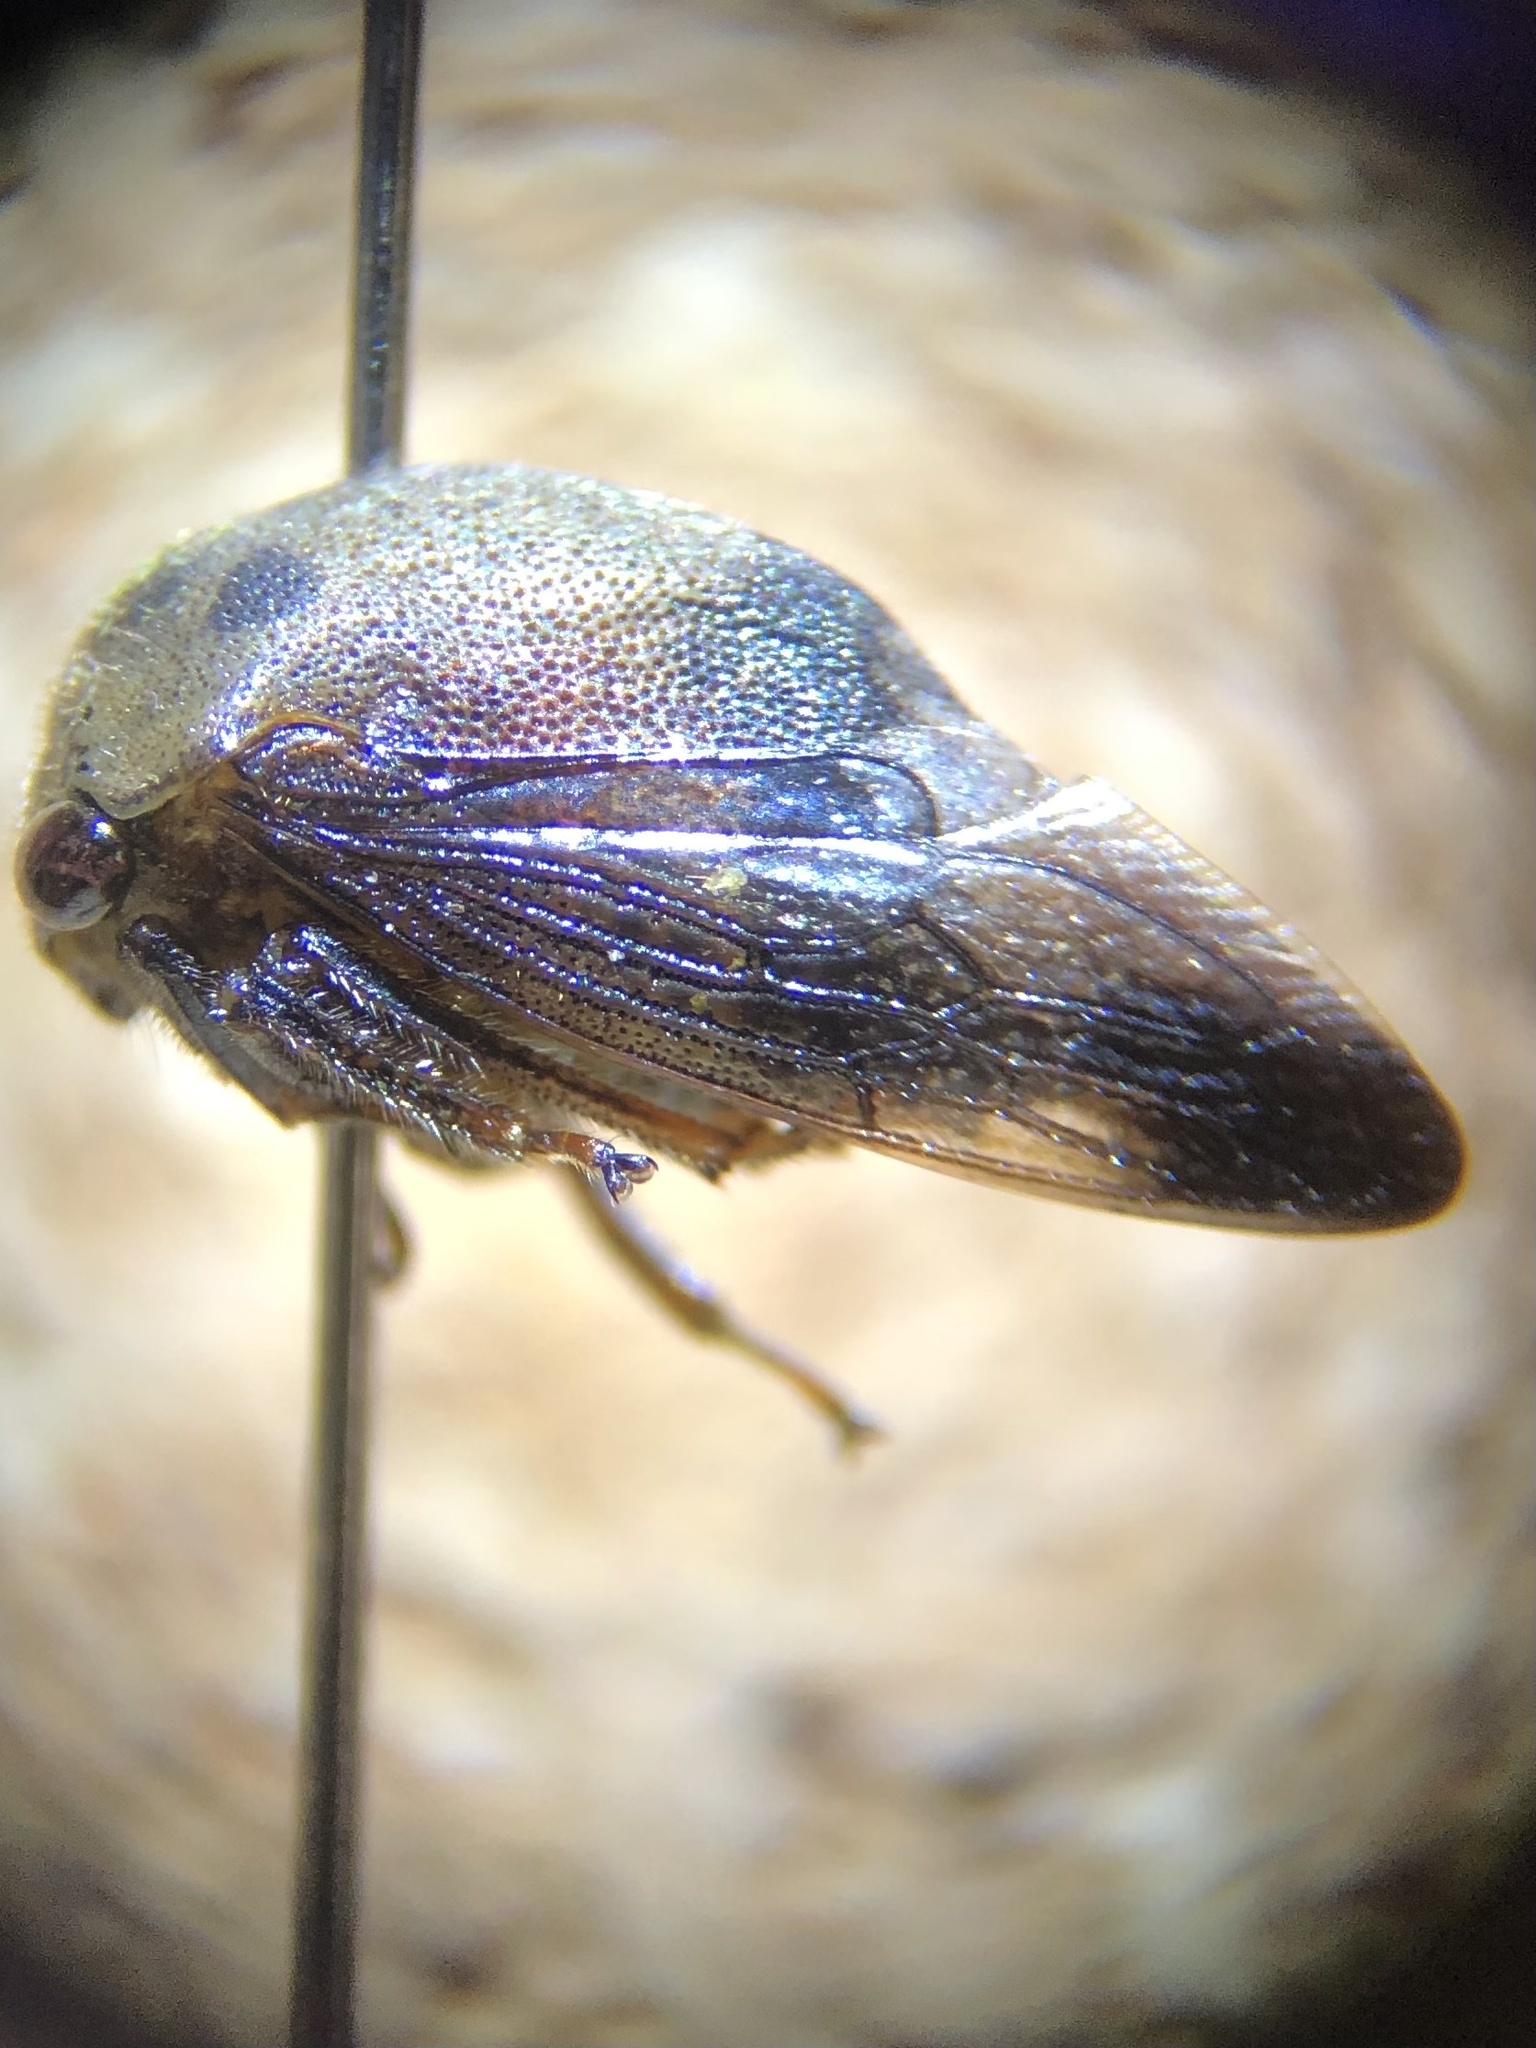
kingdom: Animalia
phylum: Arthropoda
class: Insecta
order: Hemiptera
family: Membracidae
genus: Carynota
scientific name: Carynota mera
